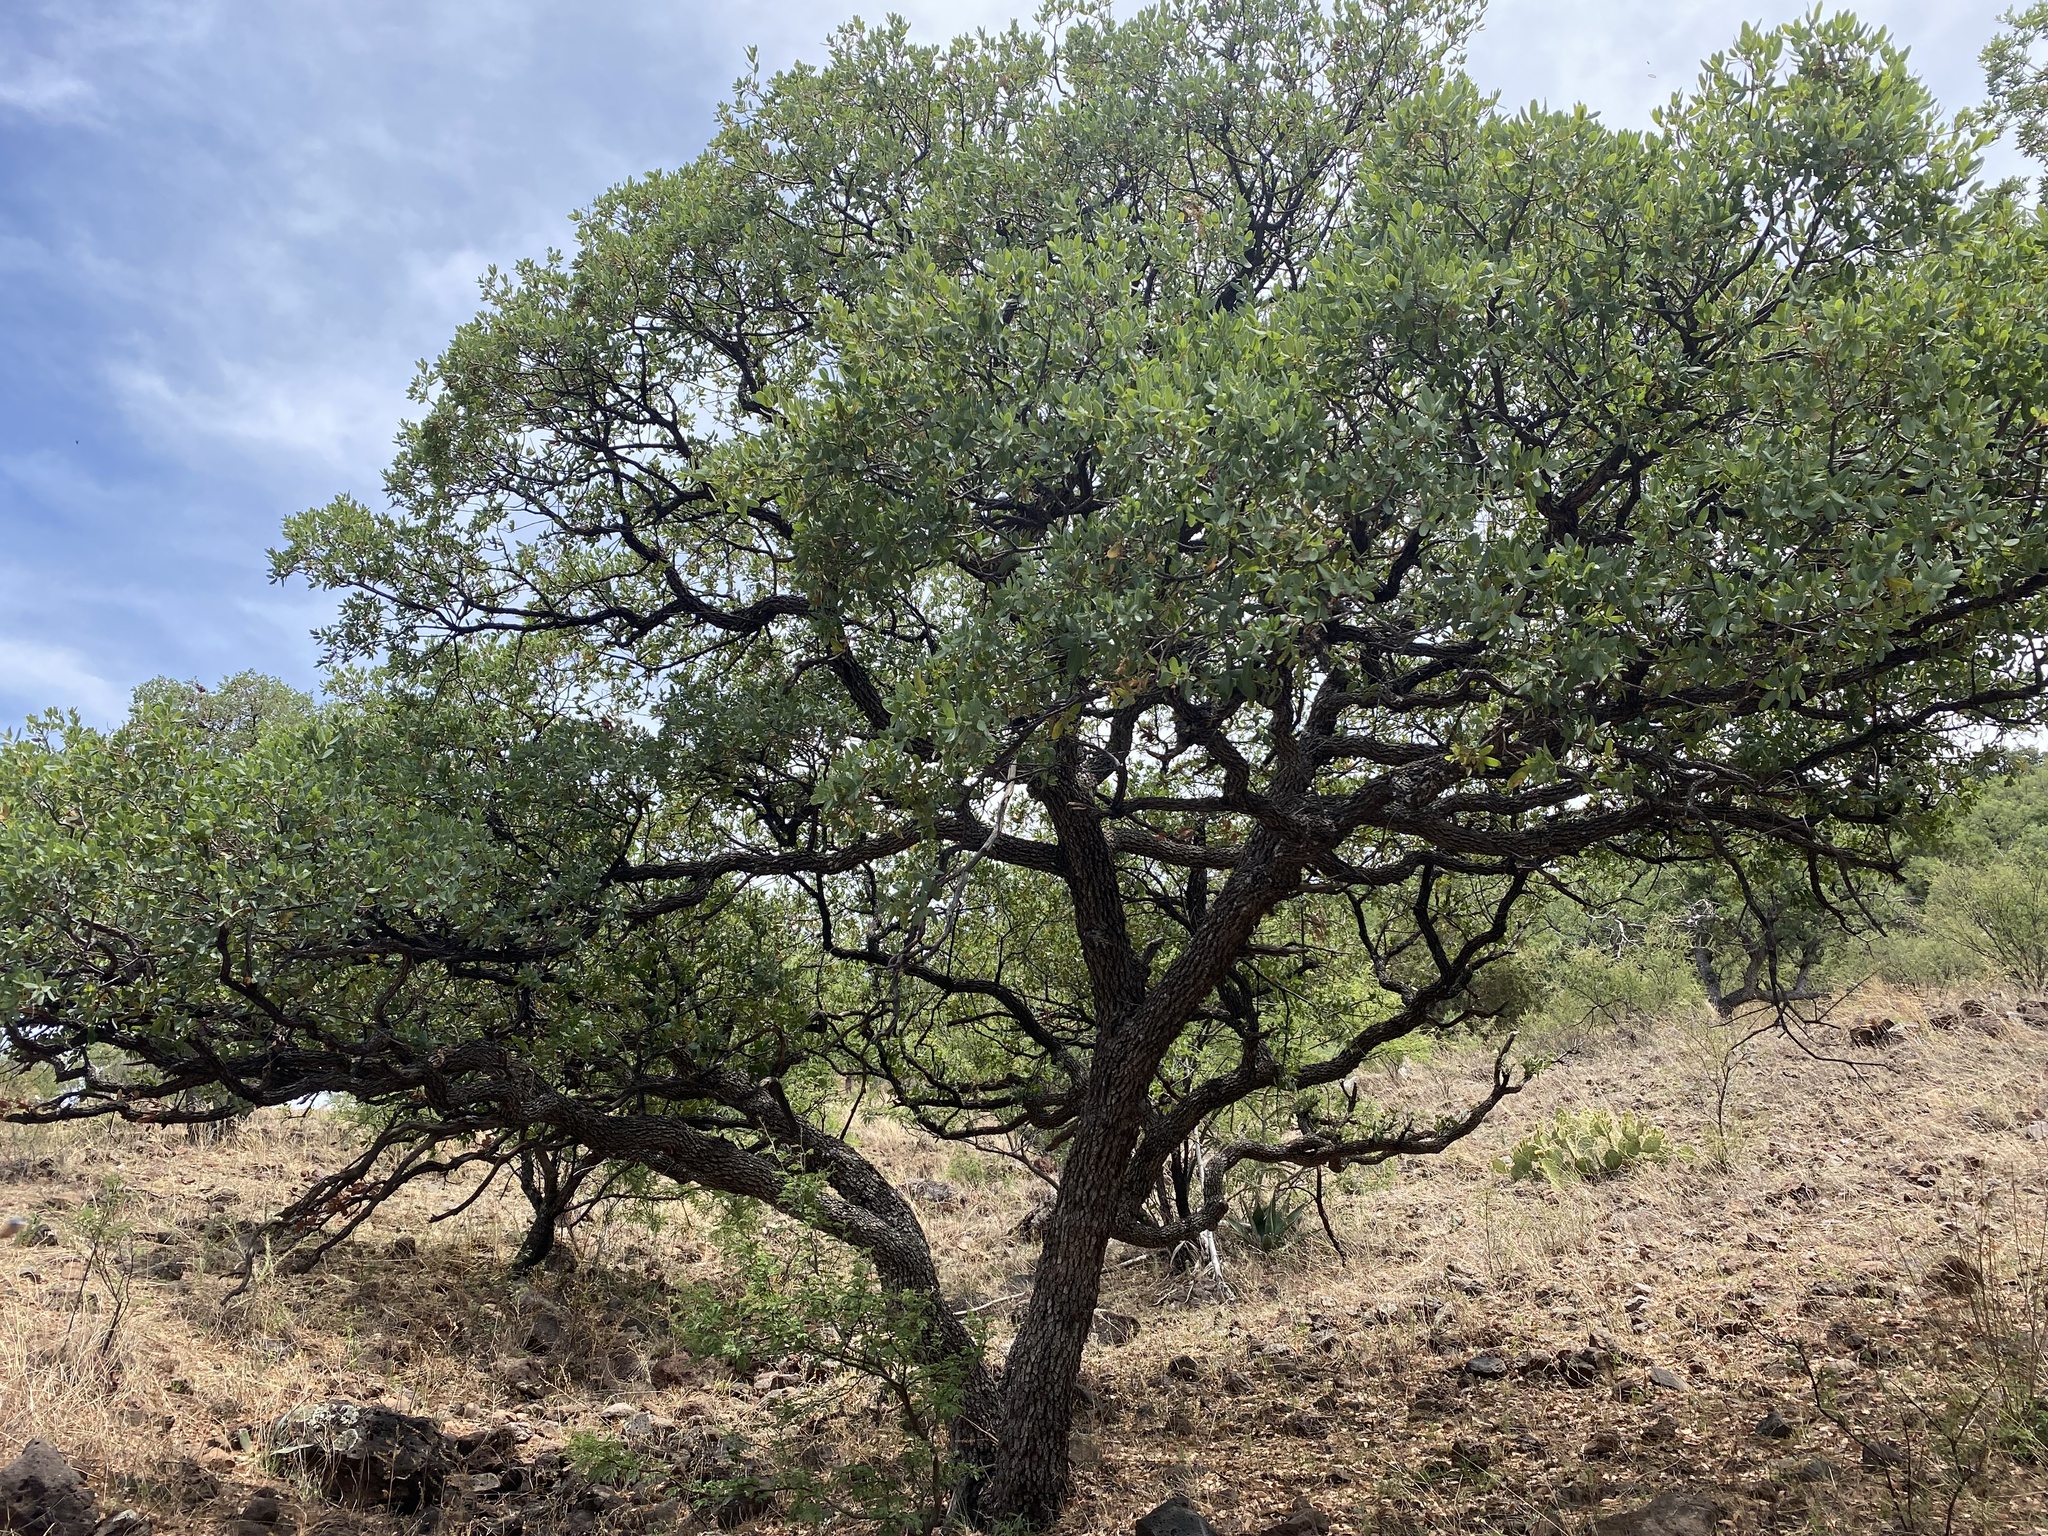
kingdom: Plantae
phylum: Tracheophyta
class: Magnoliopsida
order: Fagales
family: Fagaceae
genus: Quercus
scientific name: Quercus oblongifolia
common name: Mexican blue oak
